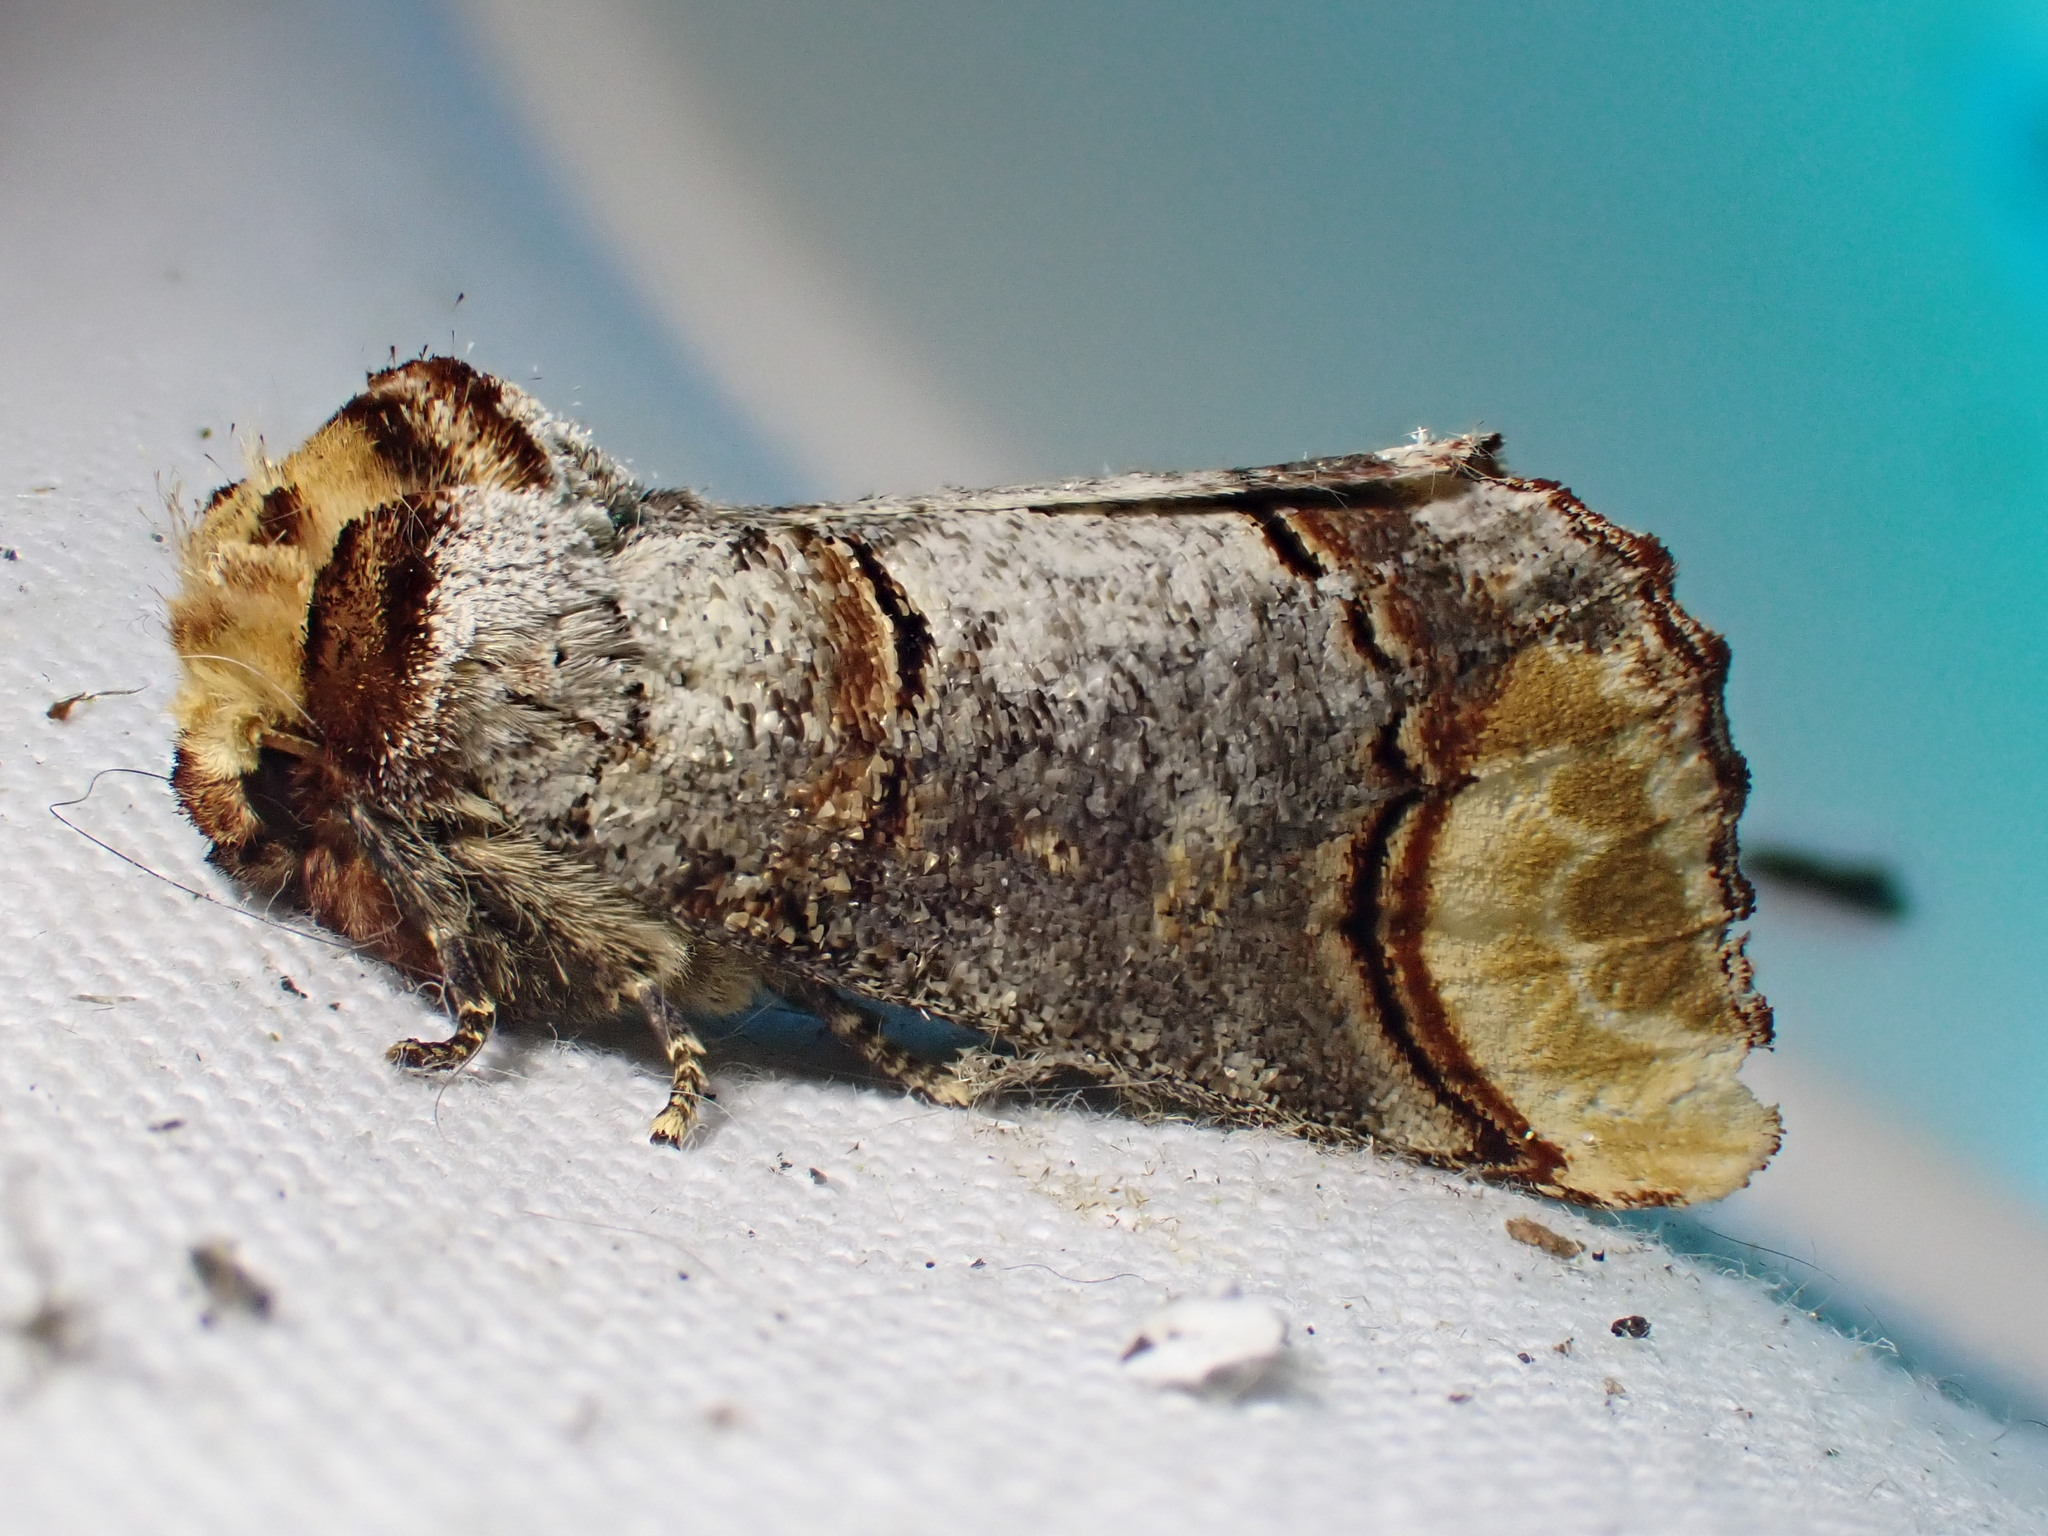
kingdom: Animalia
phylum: Arthropoda
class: Insecta
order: Lepidoptera
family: Notodontidae
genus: Phalera
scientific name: Phalera bucephala
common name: Buff-tip
